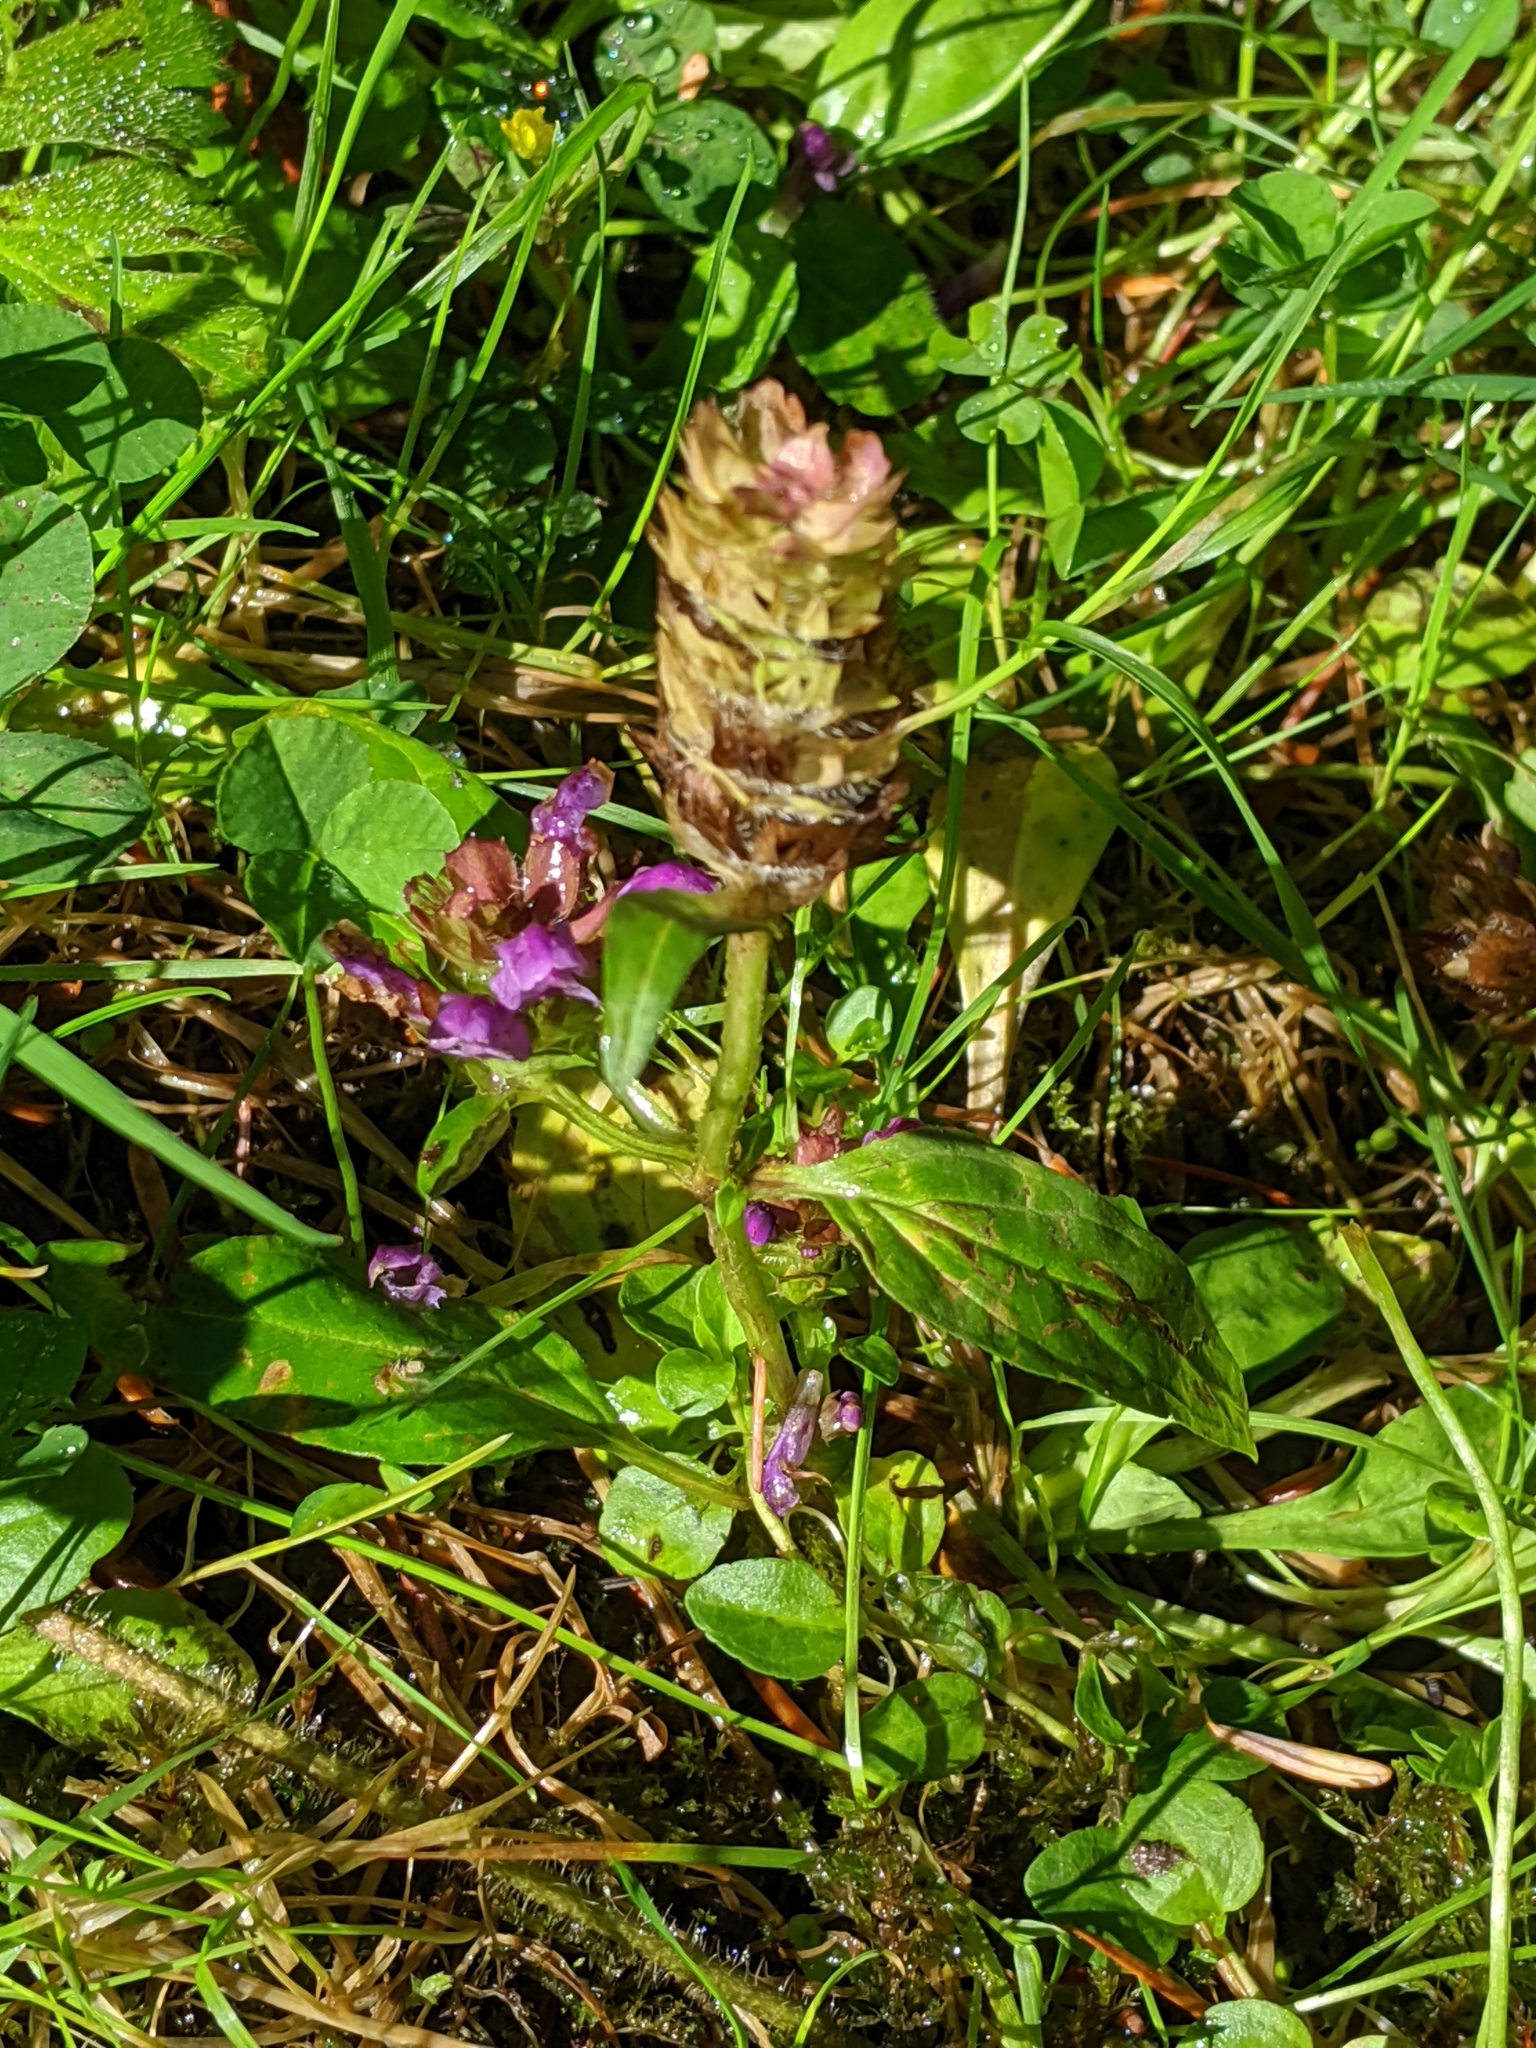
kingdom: Plantae
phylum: Tracheophyta
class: Magnoliopsida
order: Lamiales
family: Lamiaceae
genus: Prunella
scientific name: Prunella vulgaris
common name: Heal-all
